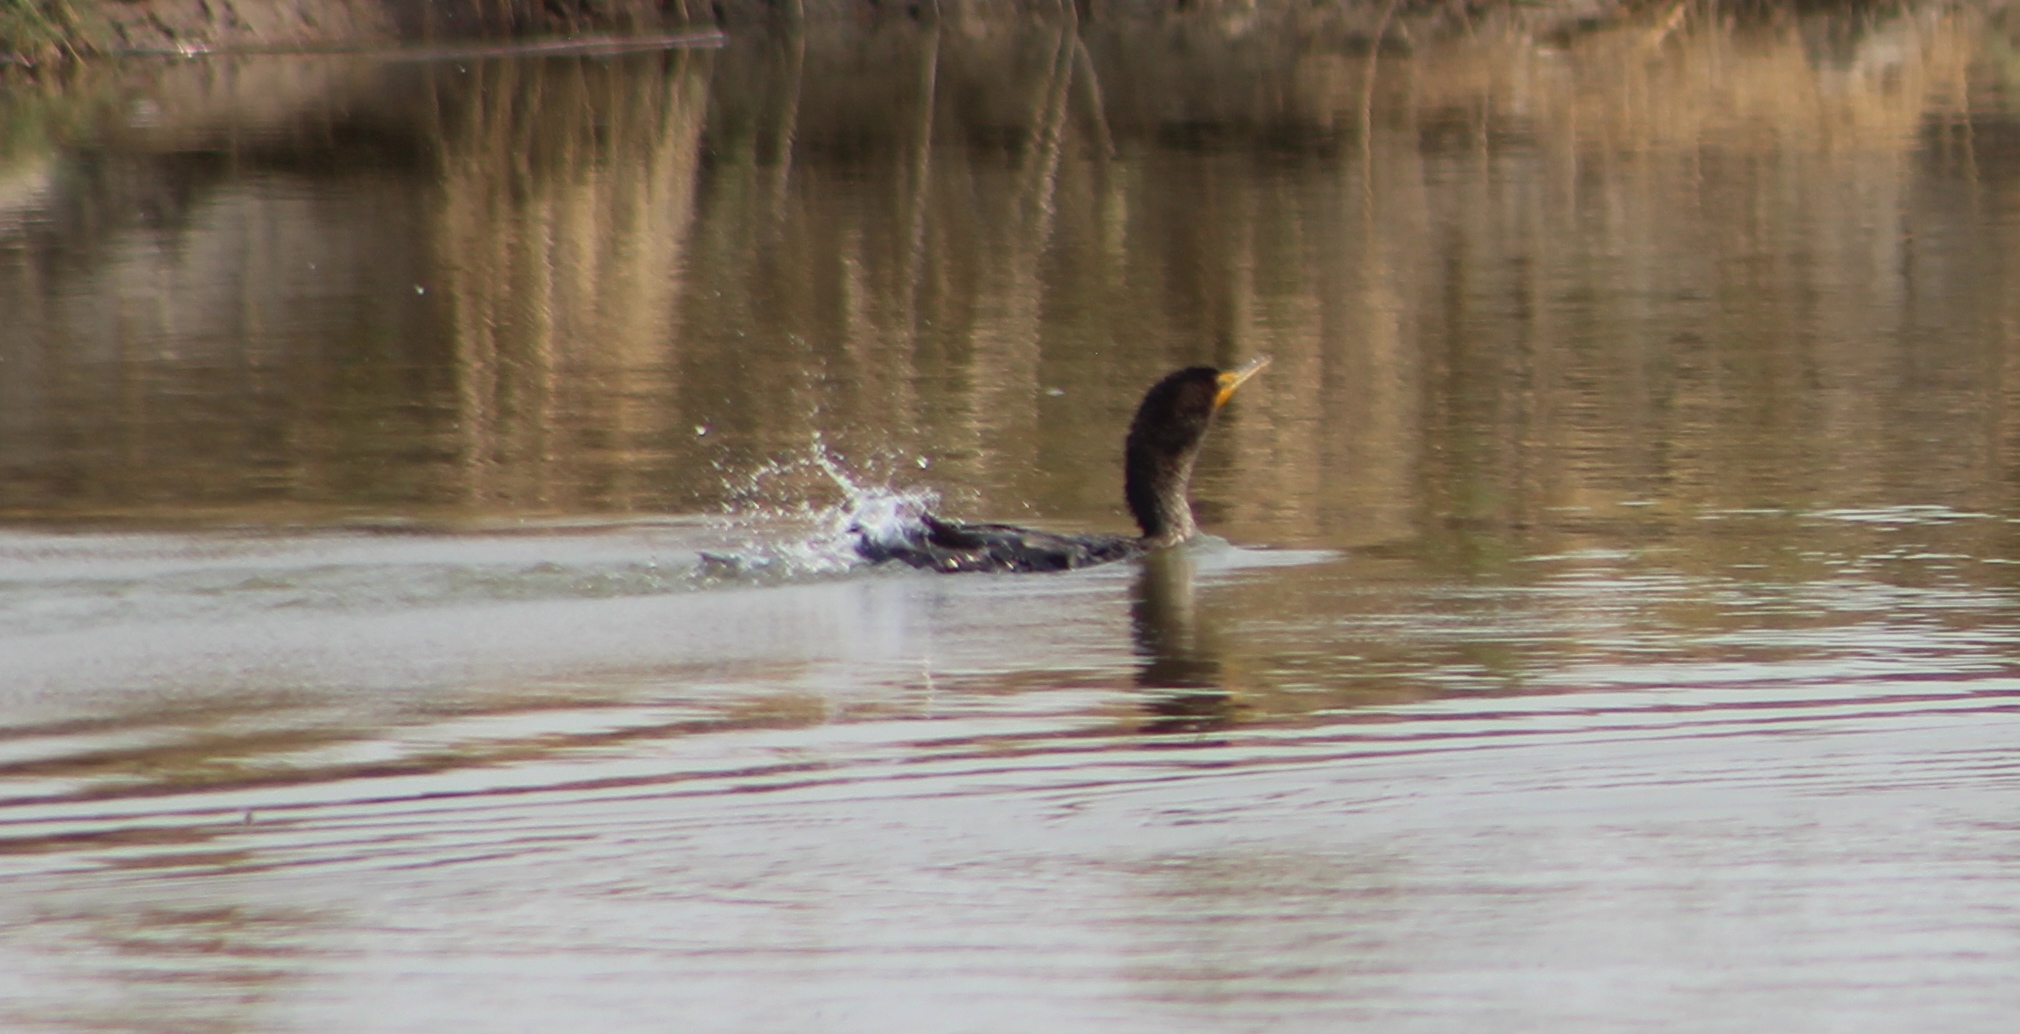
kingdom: Animalia
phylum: Chordata
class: Aves
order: Suliformes
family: Phalacrocoracidae
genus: Phalacrocorax
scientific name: Phalacrocorax auritus
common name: Double-crested cormorant
